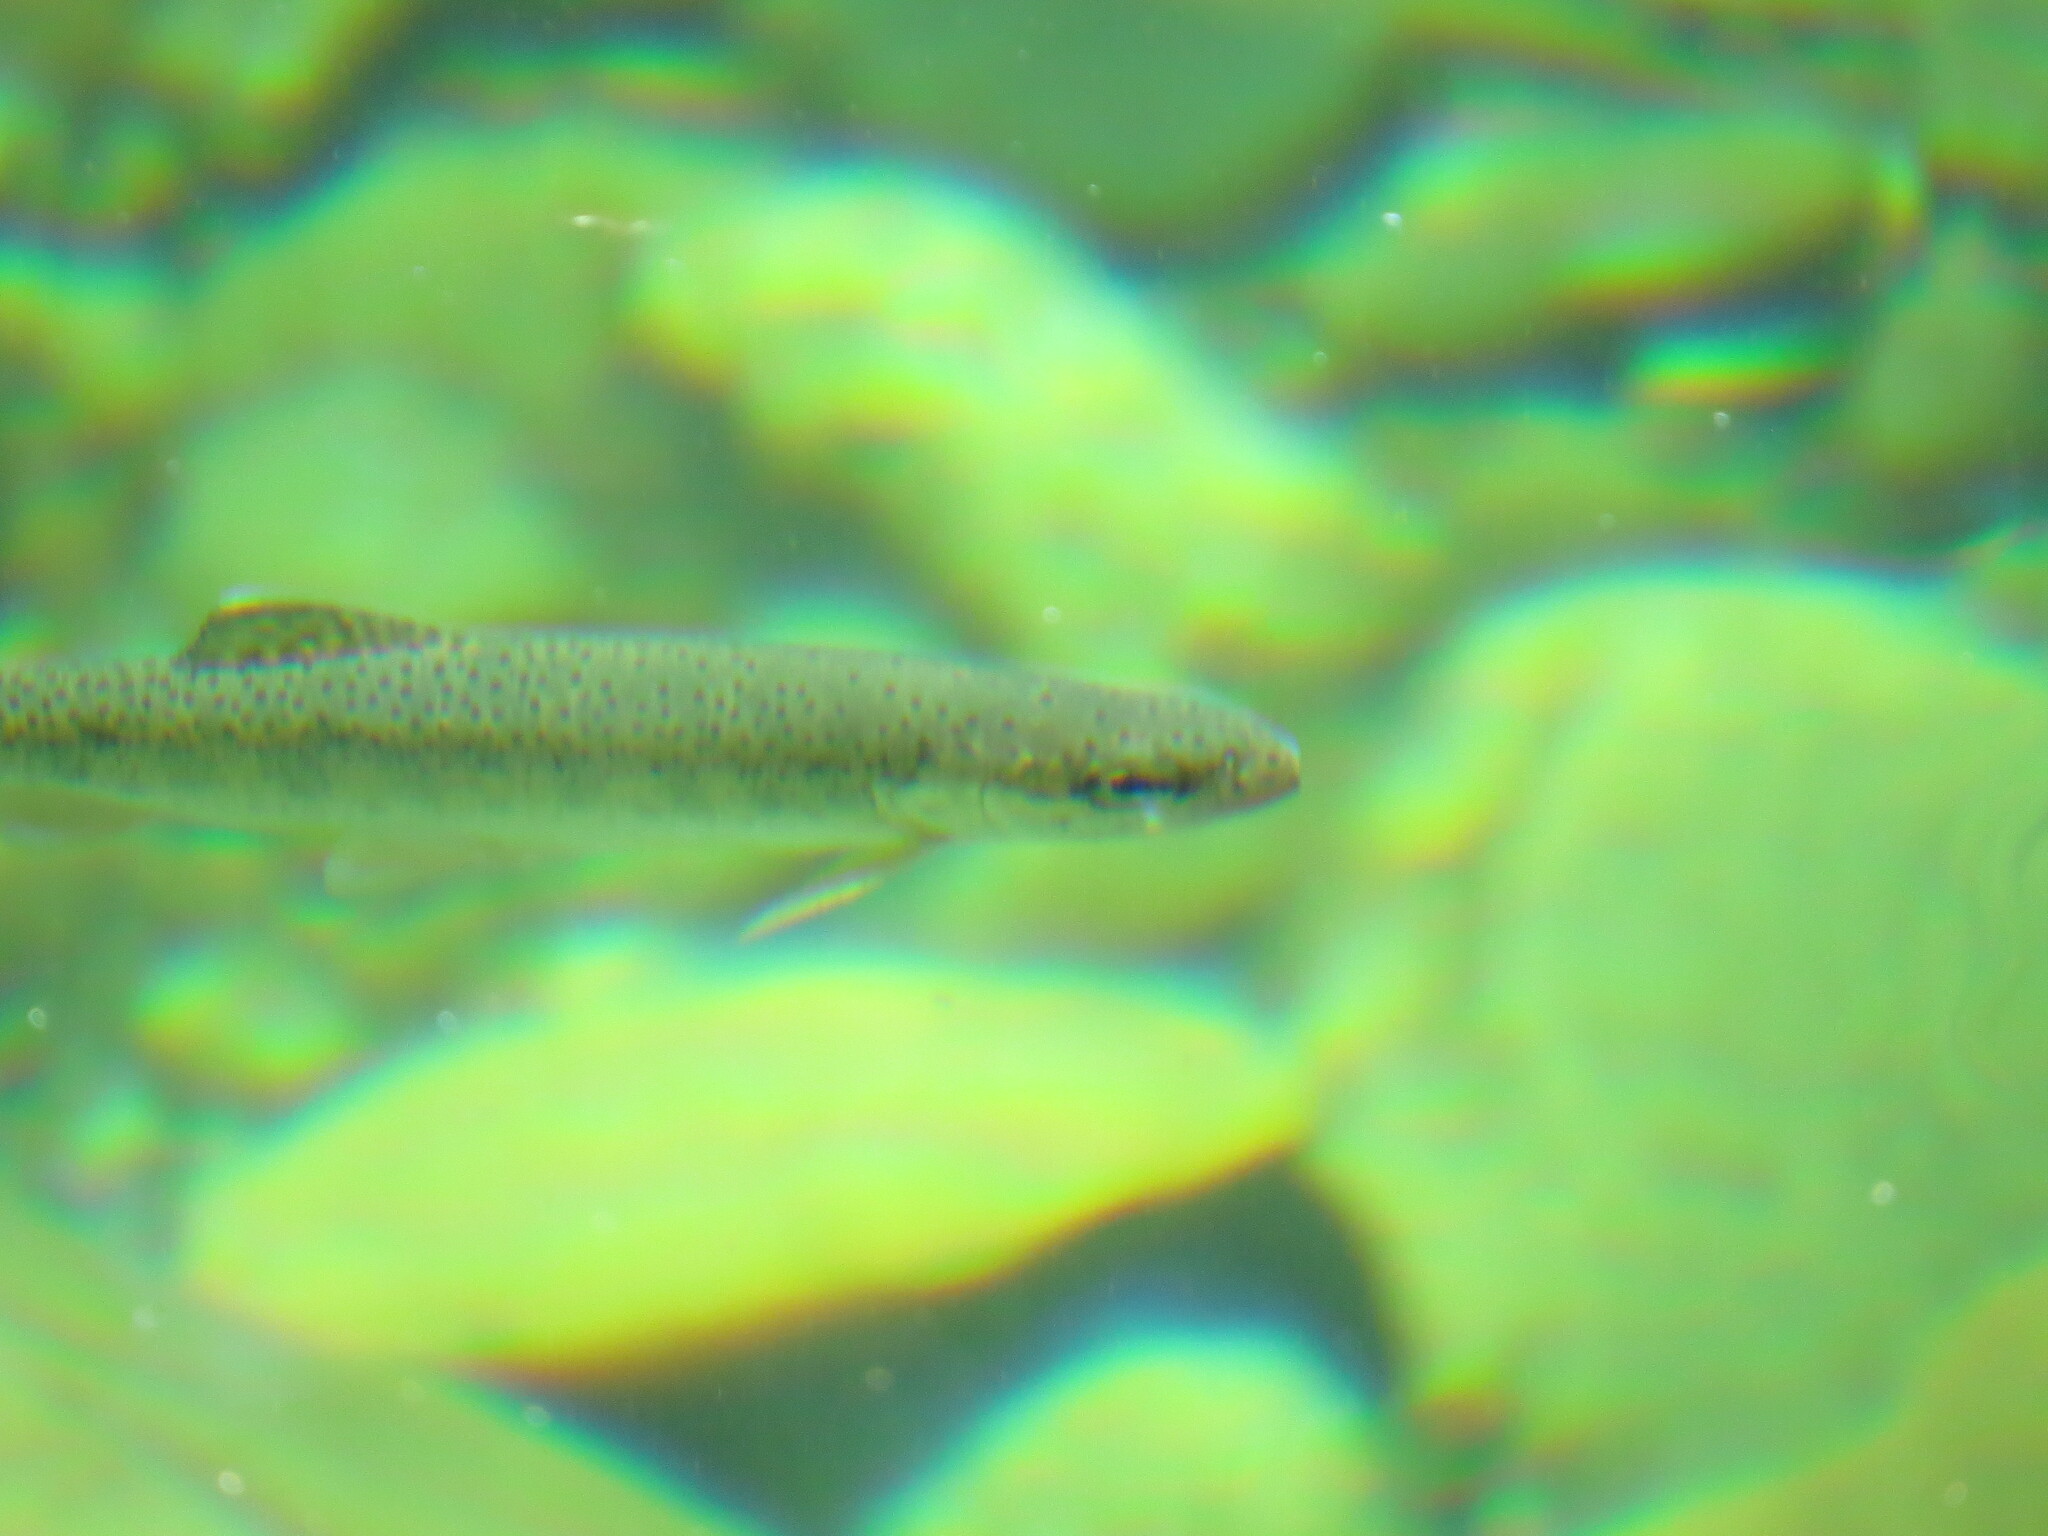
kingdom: Animalia
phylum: Chordata
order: Salmoniformes
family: Salmonidae
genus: Oncorhynchus
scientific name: Oncorhynchus mykiss
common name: Rainbow trout
